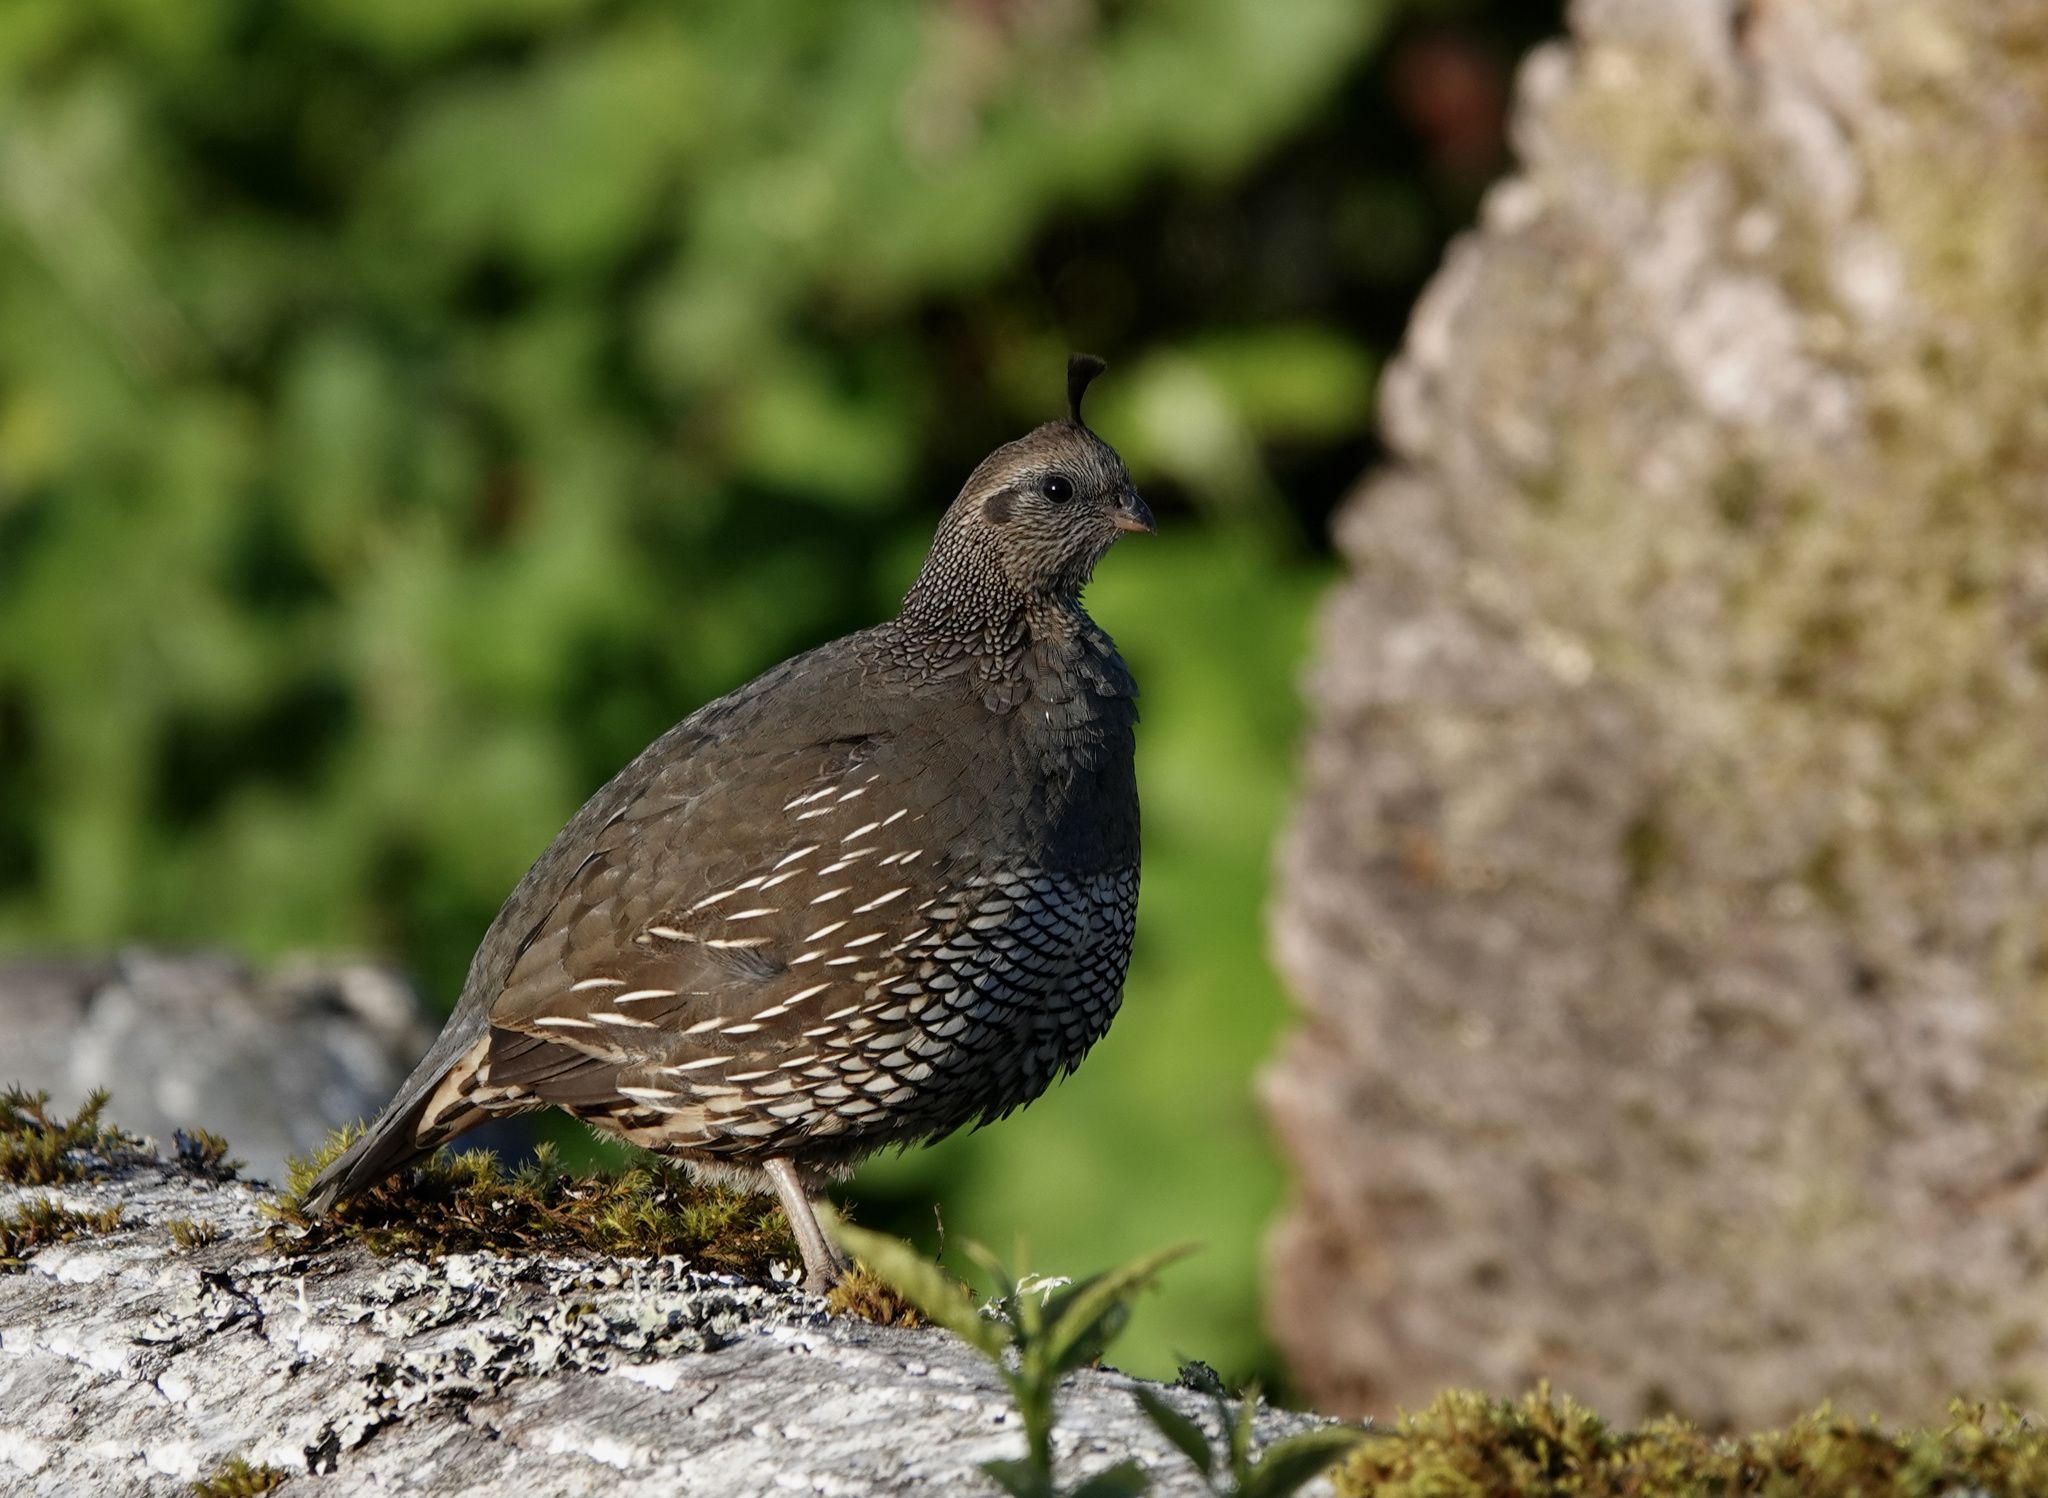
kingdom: Animalia
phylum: Chordata
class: Aves
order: Galliformes
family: Odontophoridae
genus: Callipepla
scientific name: Callipepla californica
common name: California quail
